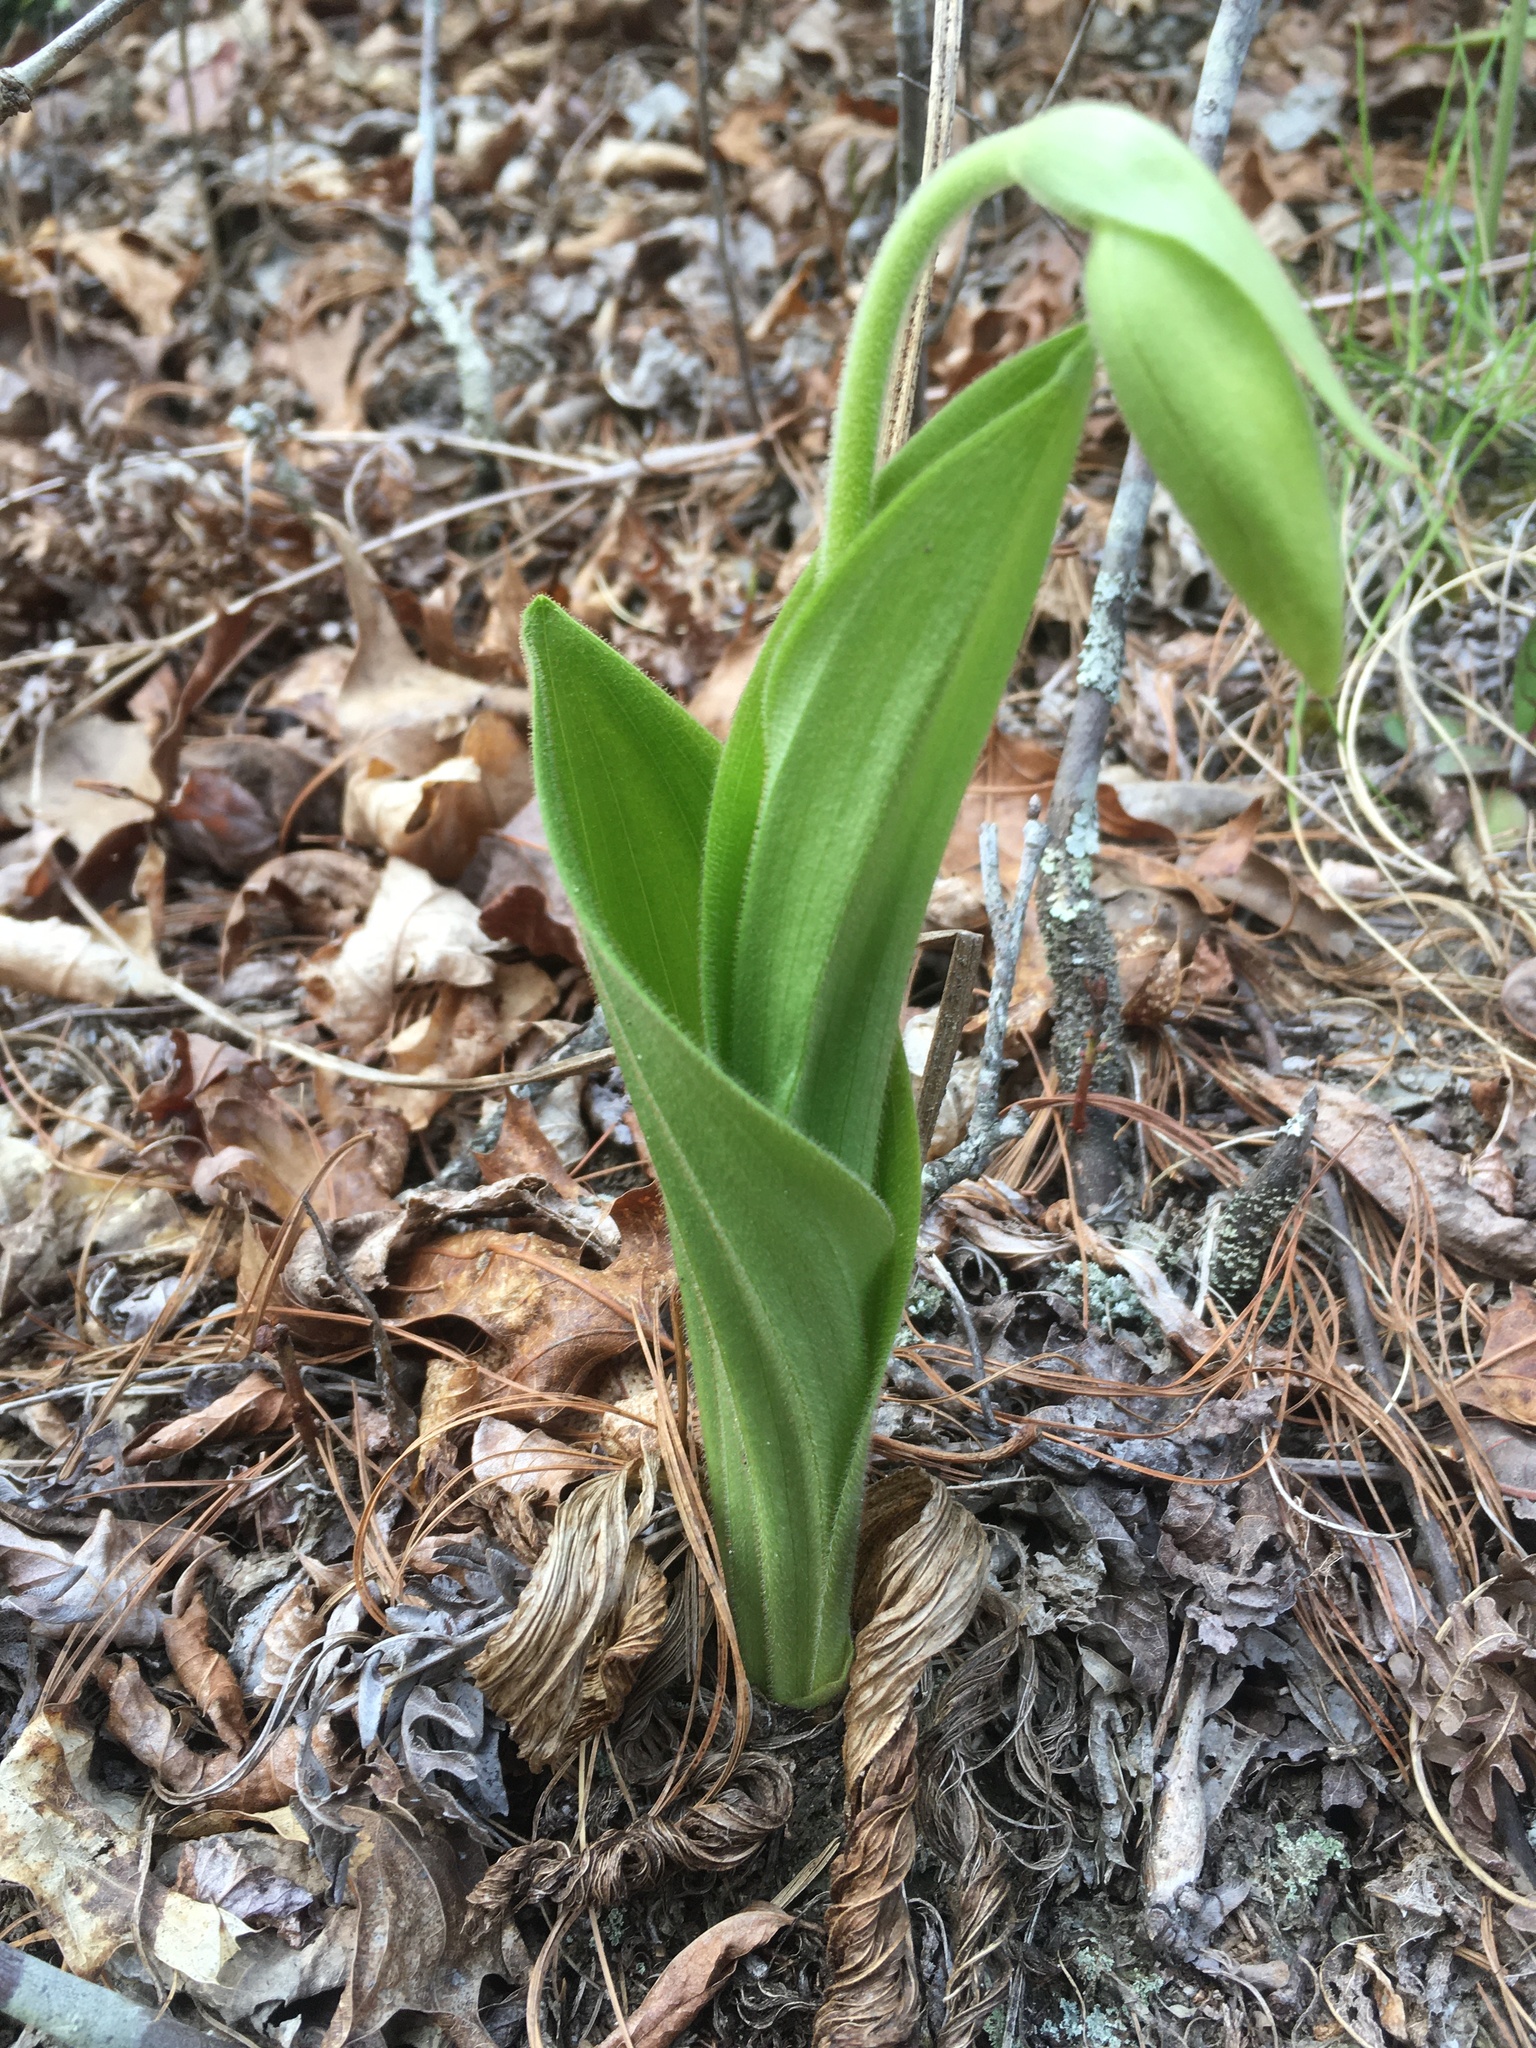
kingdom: Plantae
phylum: Tracheophyta
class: Liliopsida
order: Asparagales
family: Orchidaceae
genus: Cypripedium
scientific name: Cypripedium acaule
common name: Pink lady's-slipper
